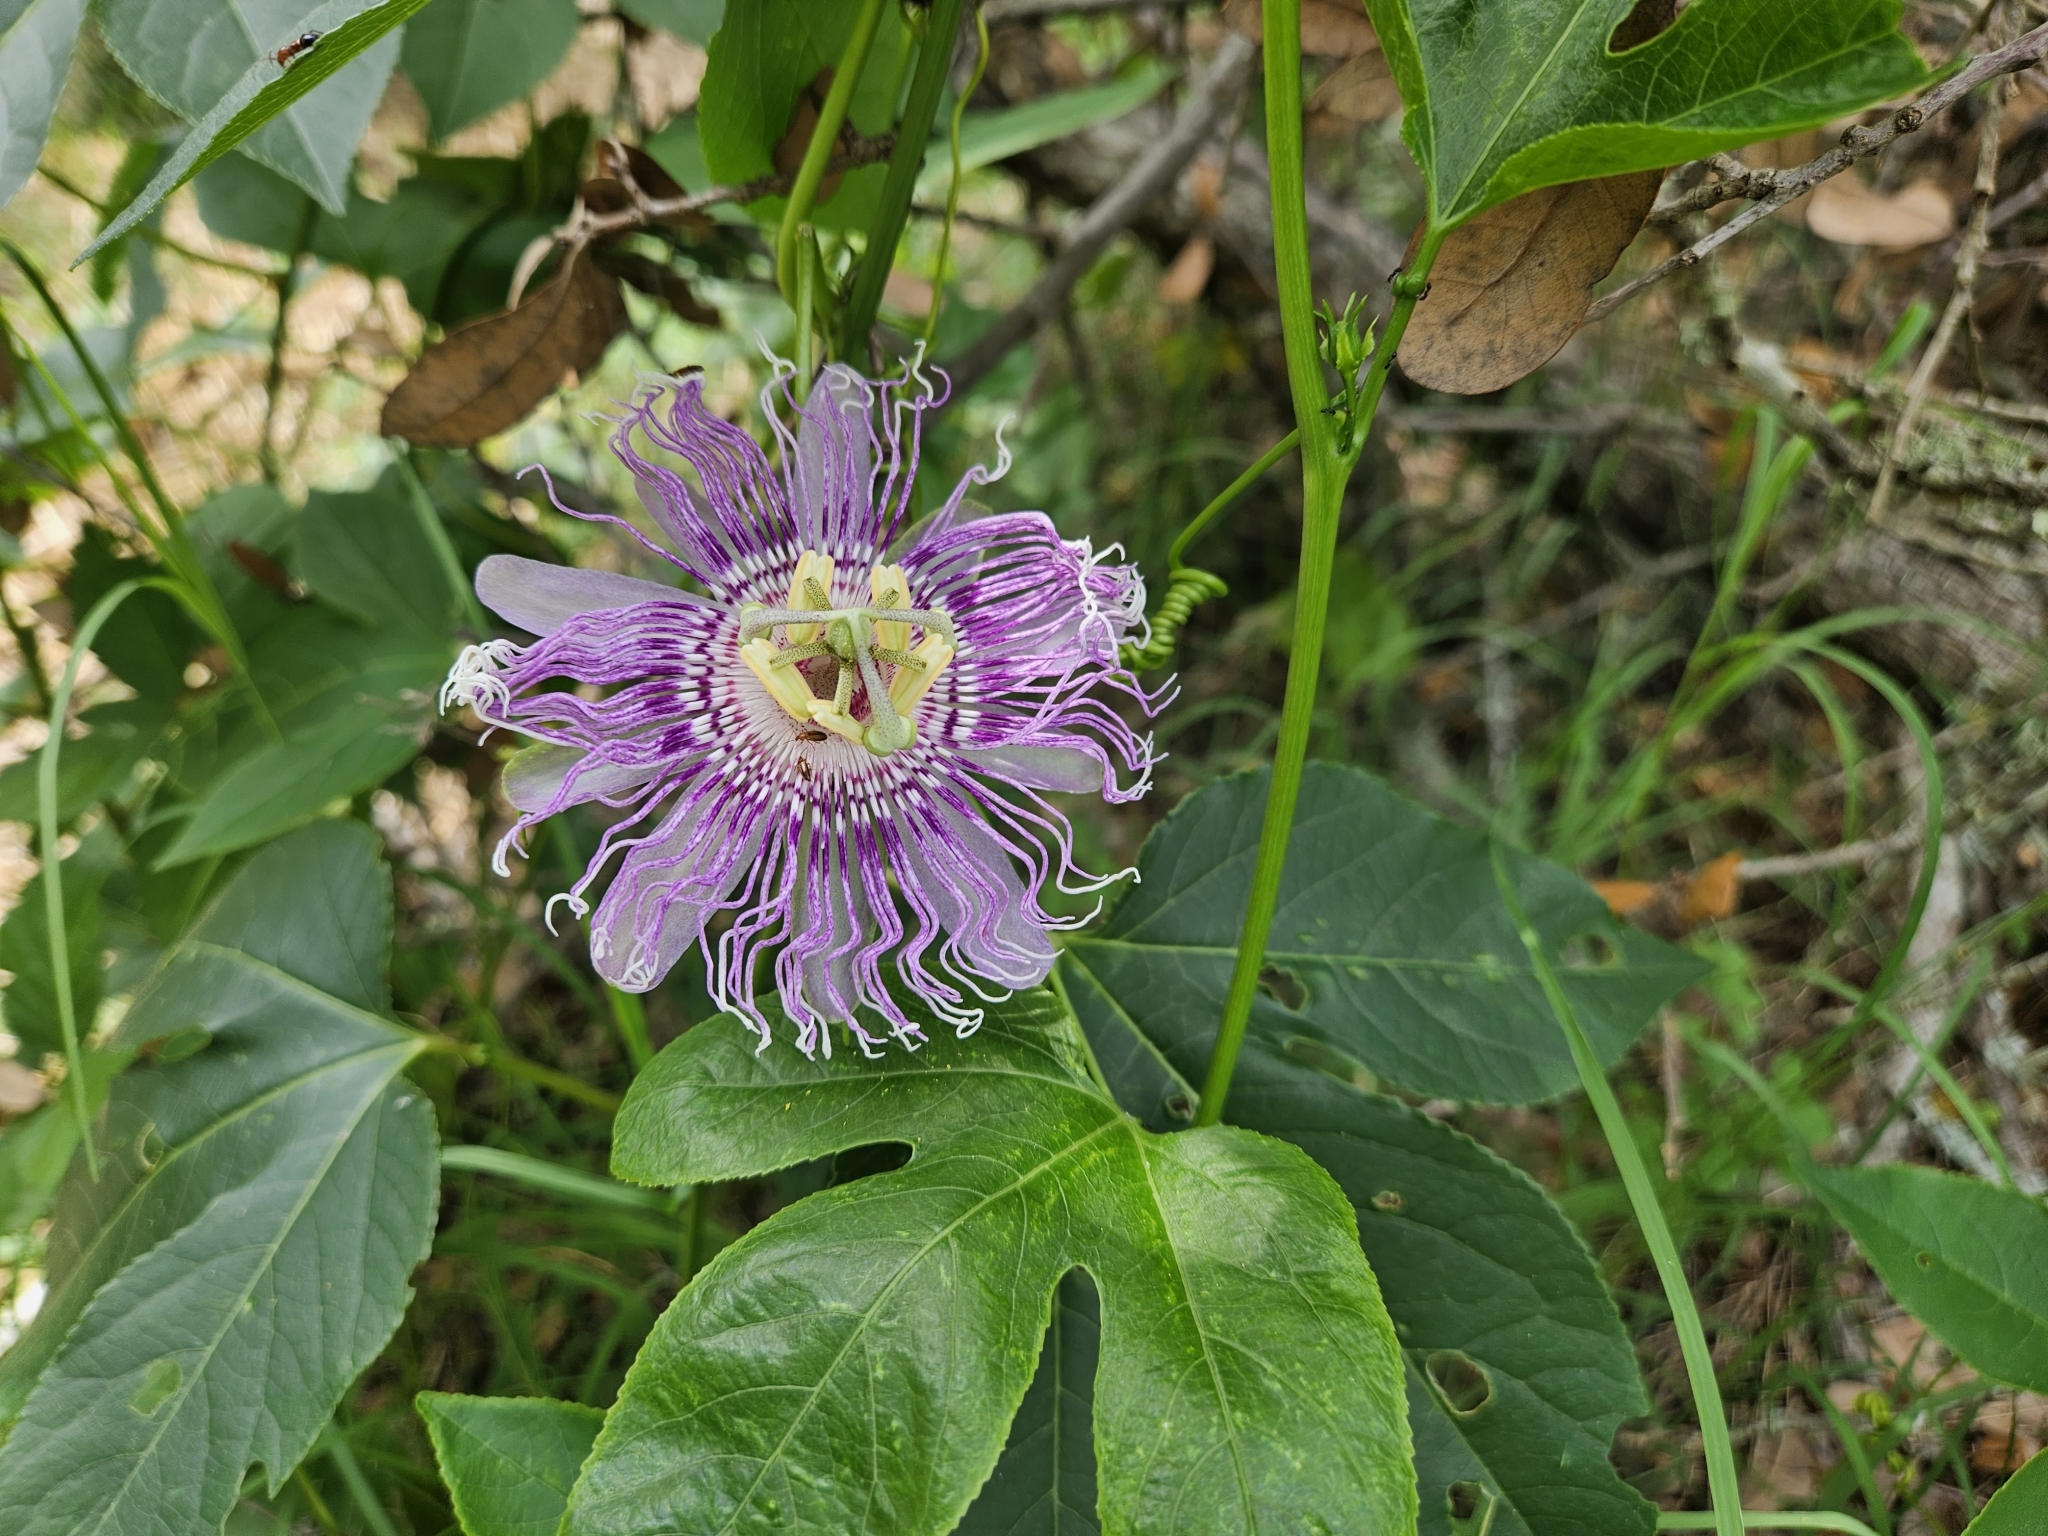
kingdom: Plantae
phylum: Tracheophyta
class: Magnoliopsida
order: Malpighiales
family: Passifloraceae
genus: Passiflora
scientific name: Passiflora incarnata
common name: Apricot-vine
